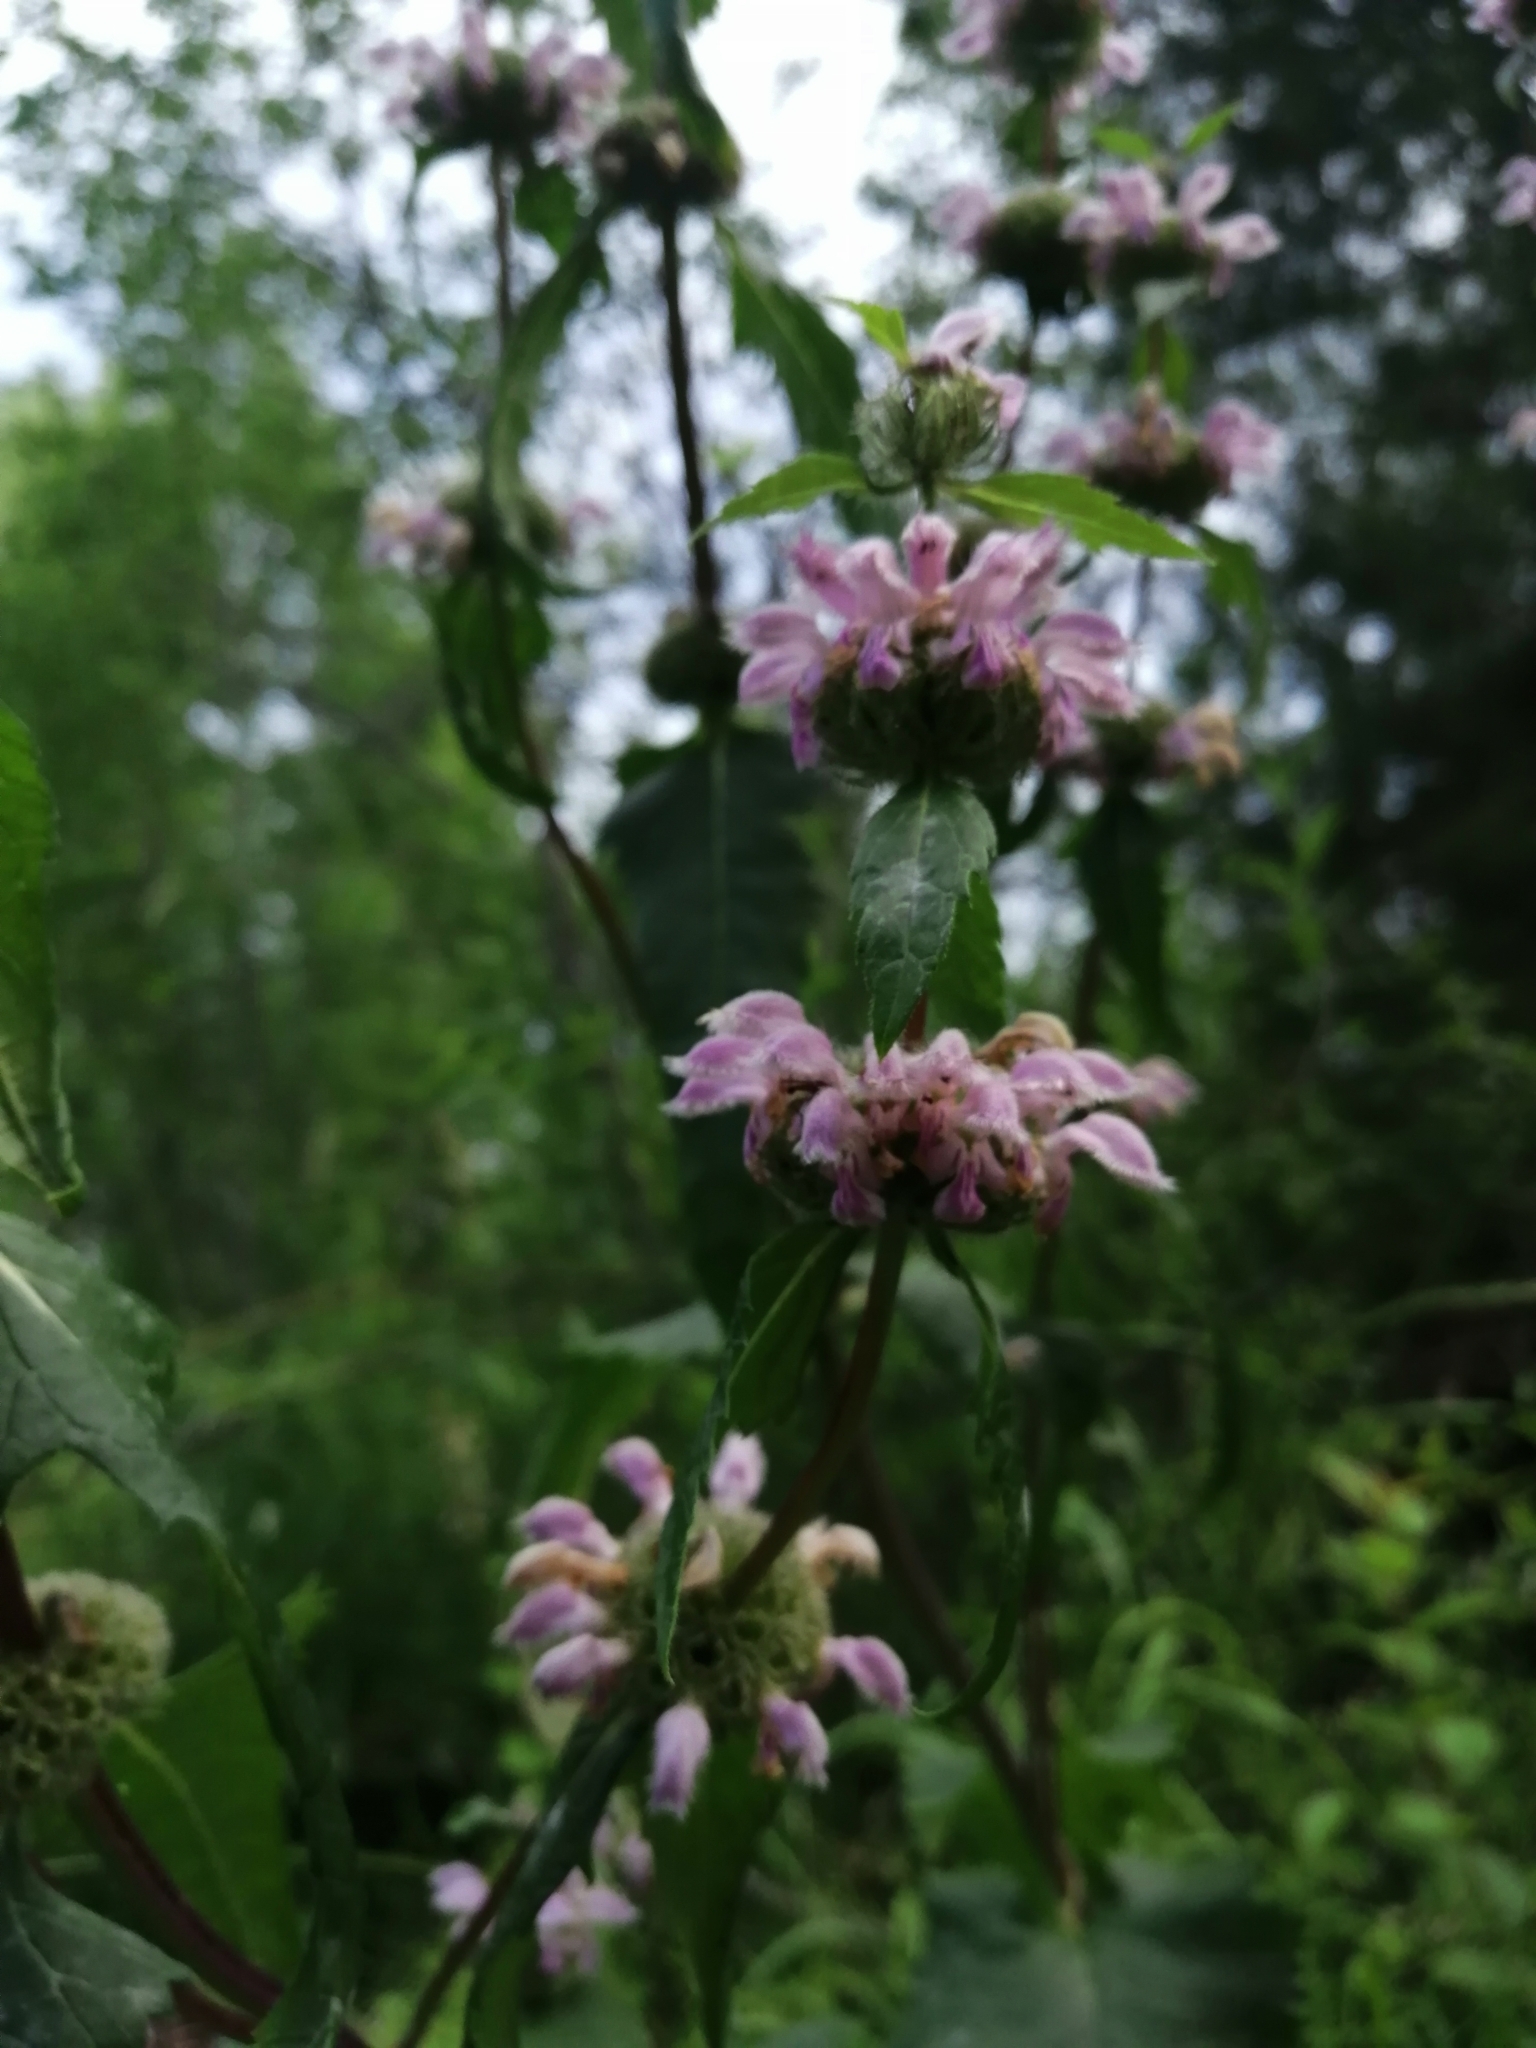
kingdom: Plantae
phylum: Tracheophyta
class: Magnoliopsida
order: Lamiales
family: Lamiaceae
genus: Phlomoides
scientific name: Phlomoides tuberosa
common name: Tuberous jerusalem sage
